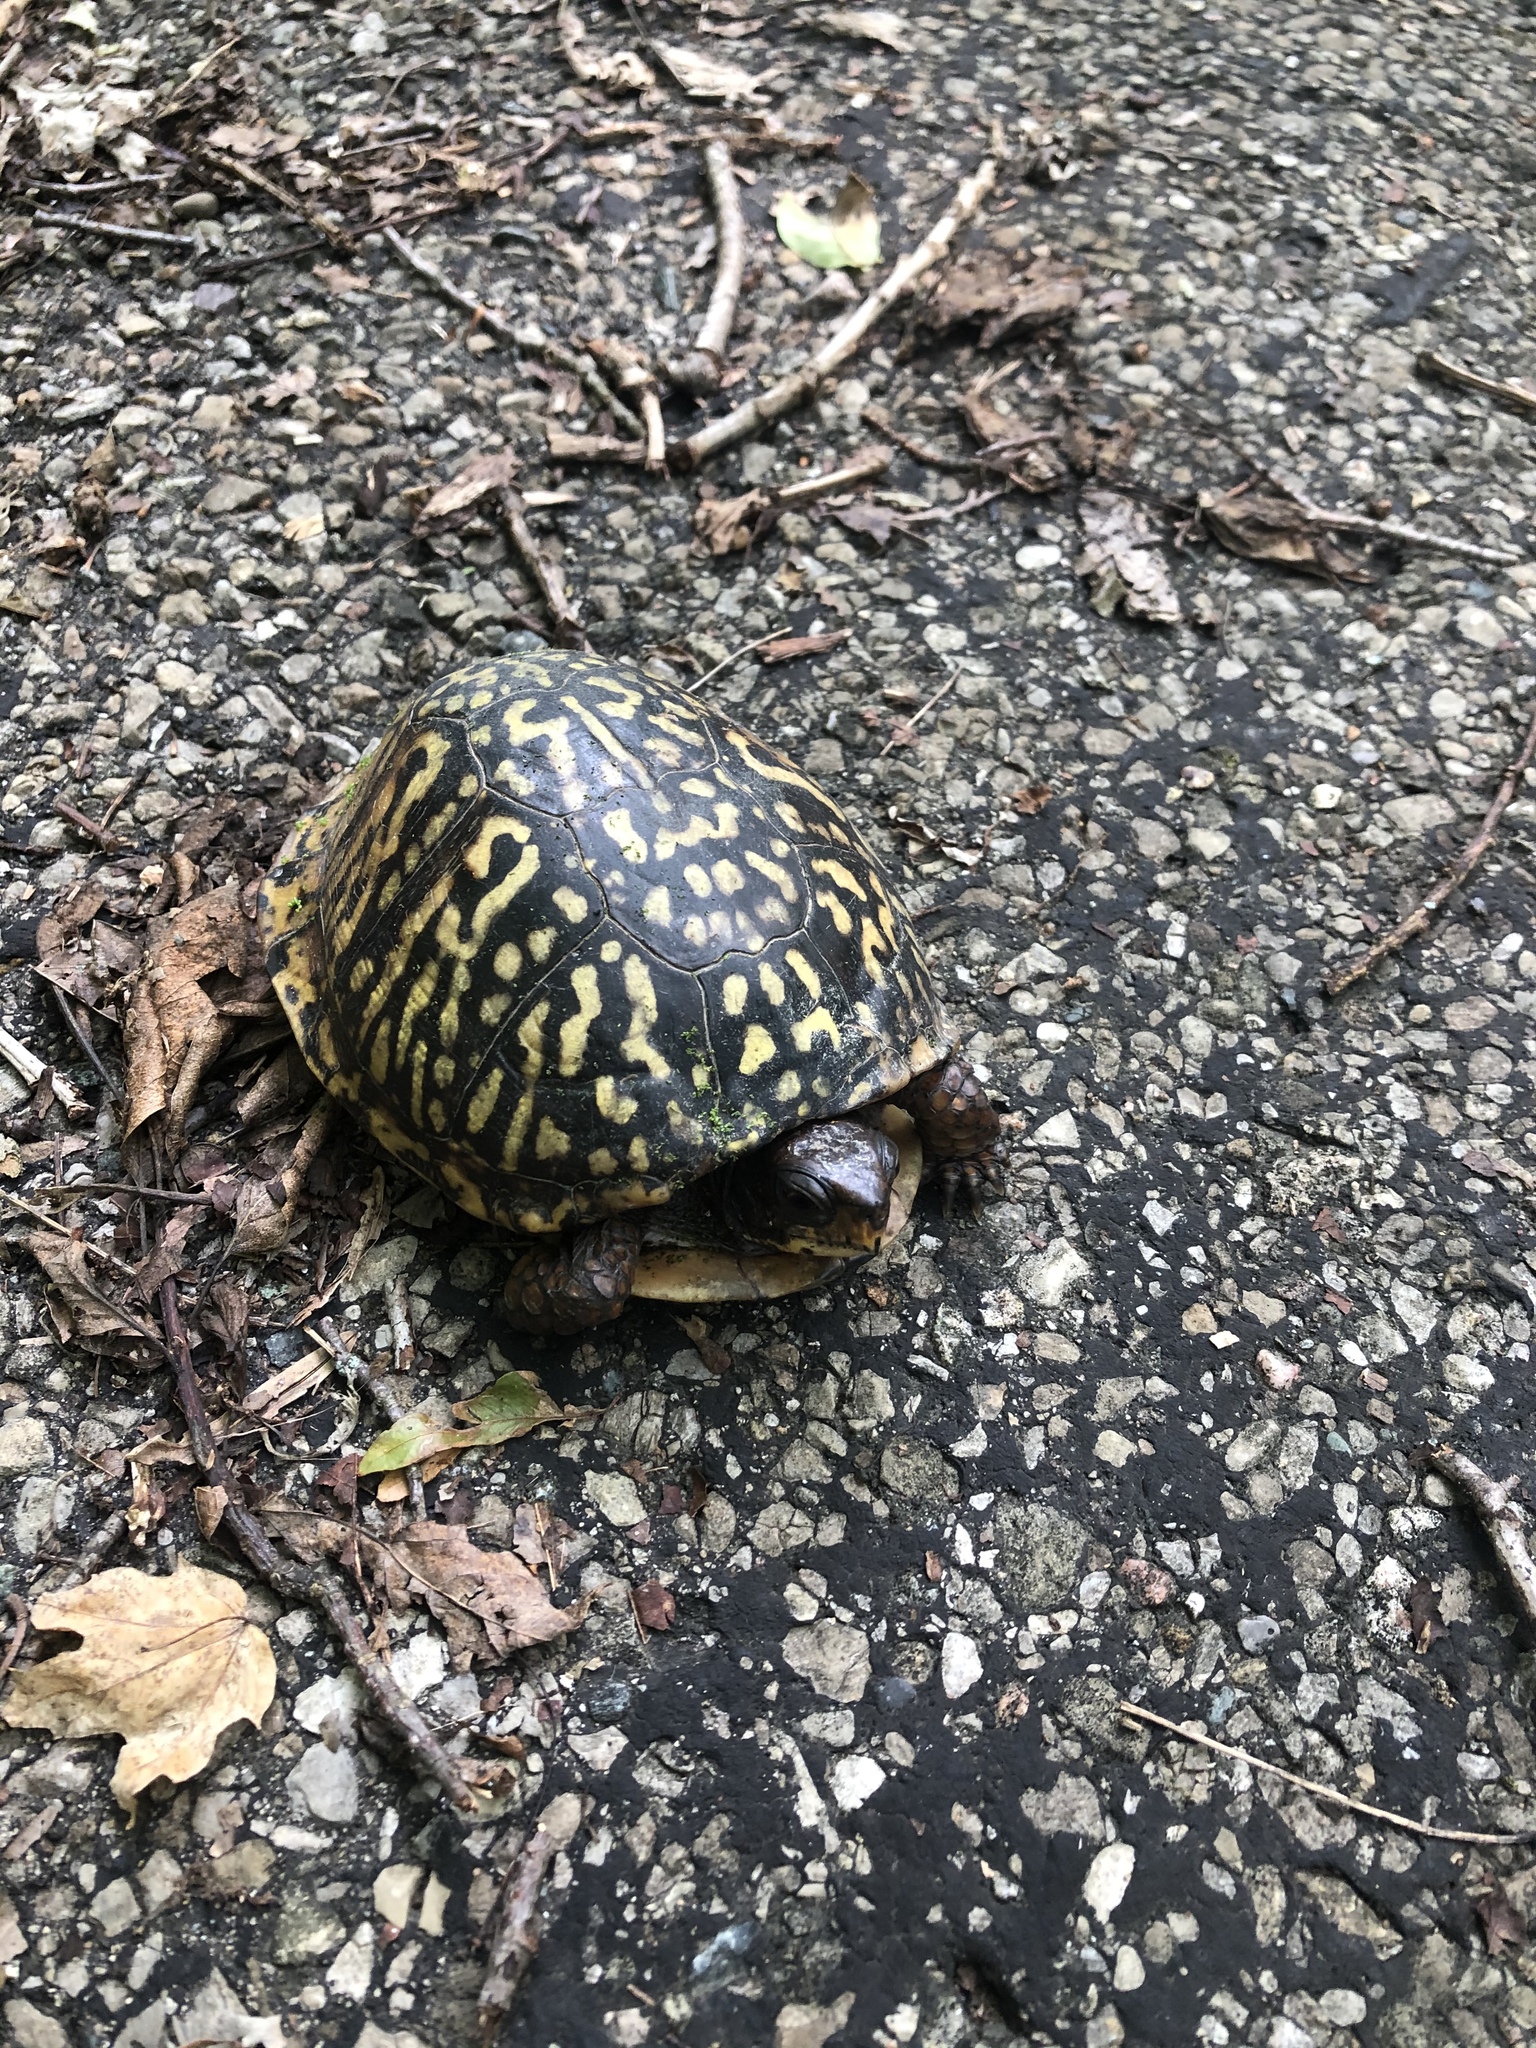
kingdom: Animalia
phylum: Chordata
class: Testudines
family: Emydidae
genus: Terrapene
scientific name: Terrapene carolina
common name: Common box turtle
